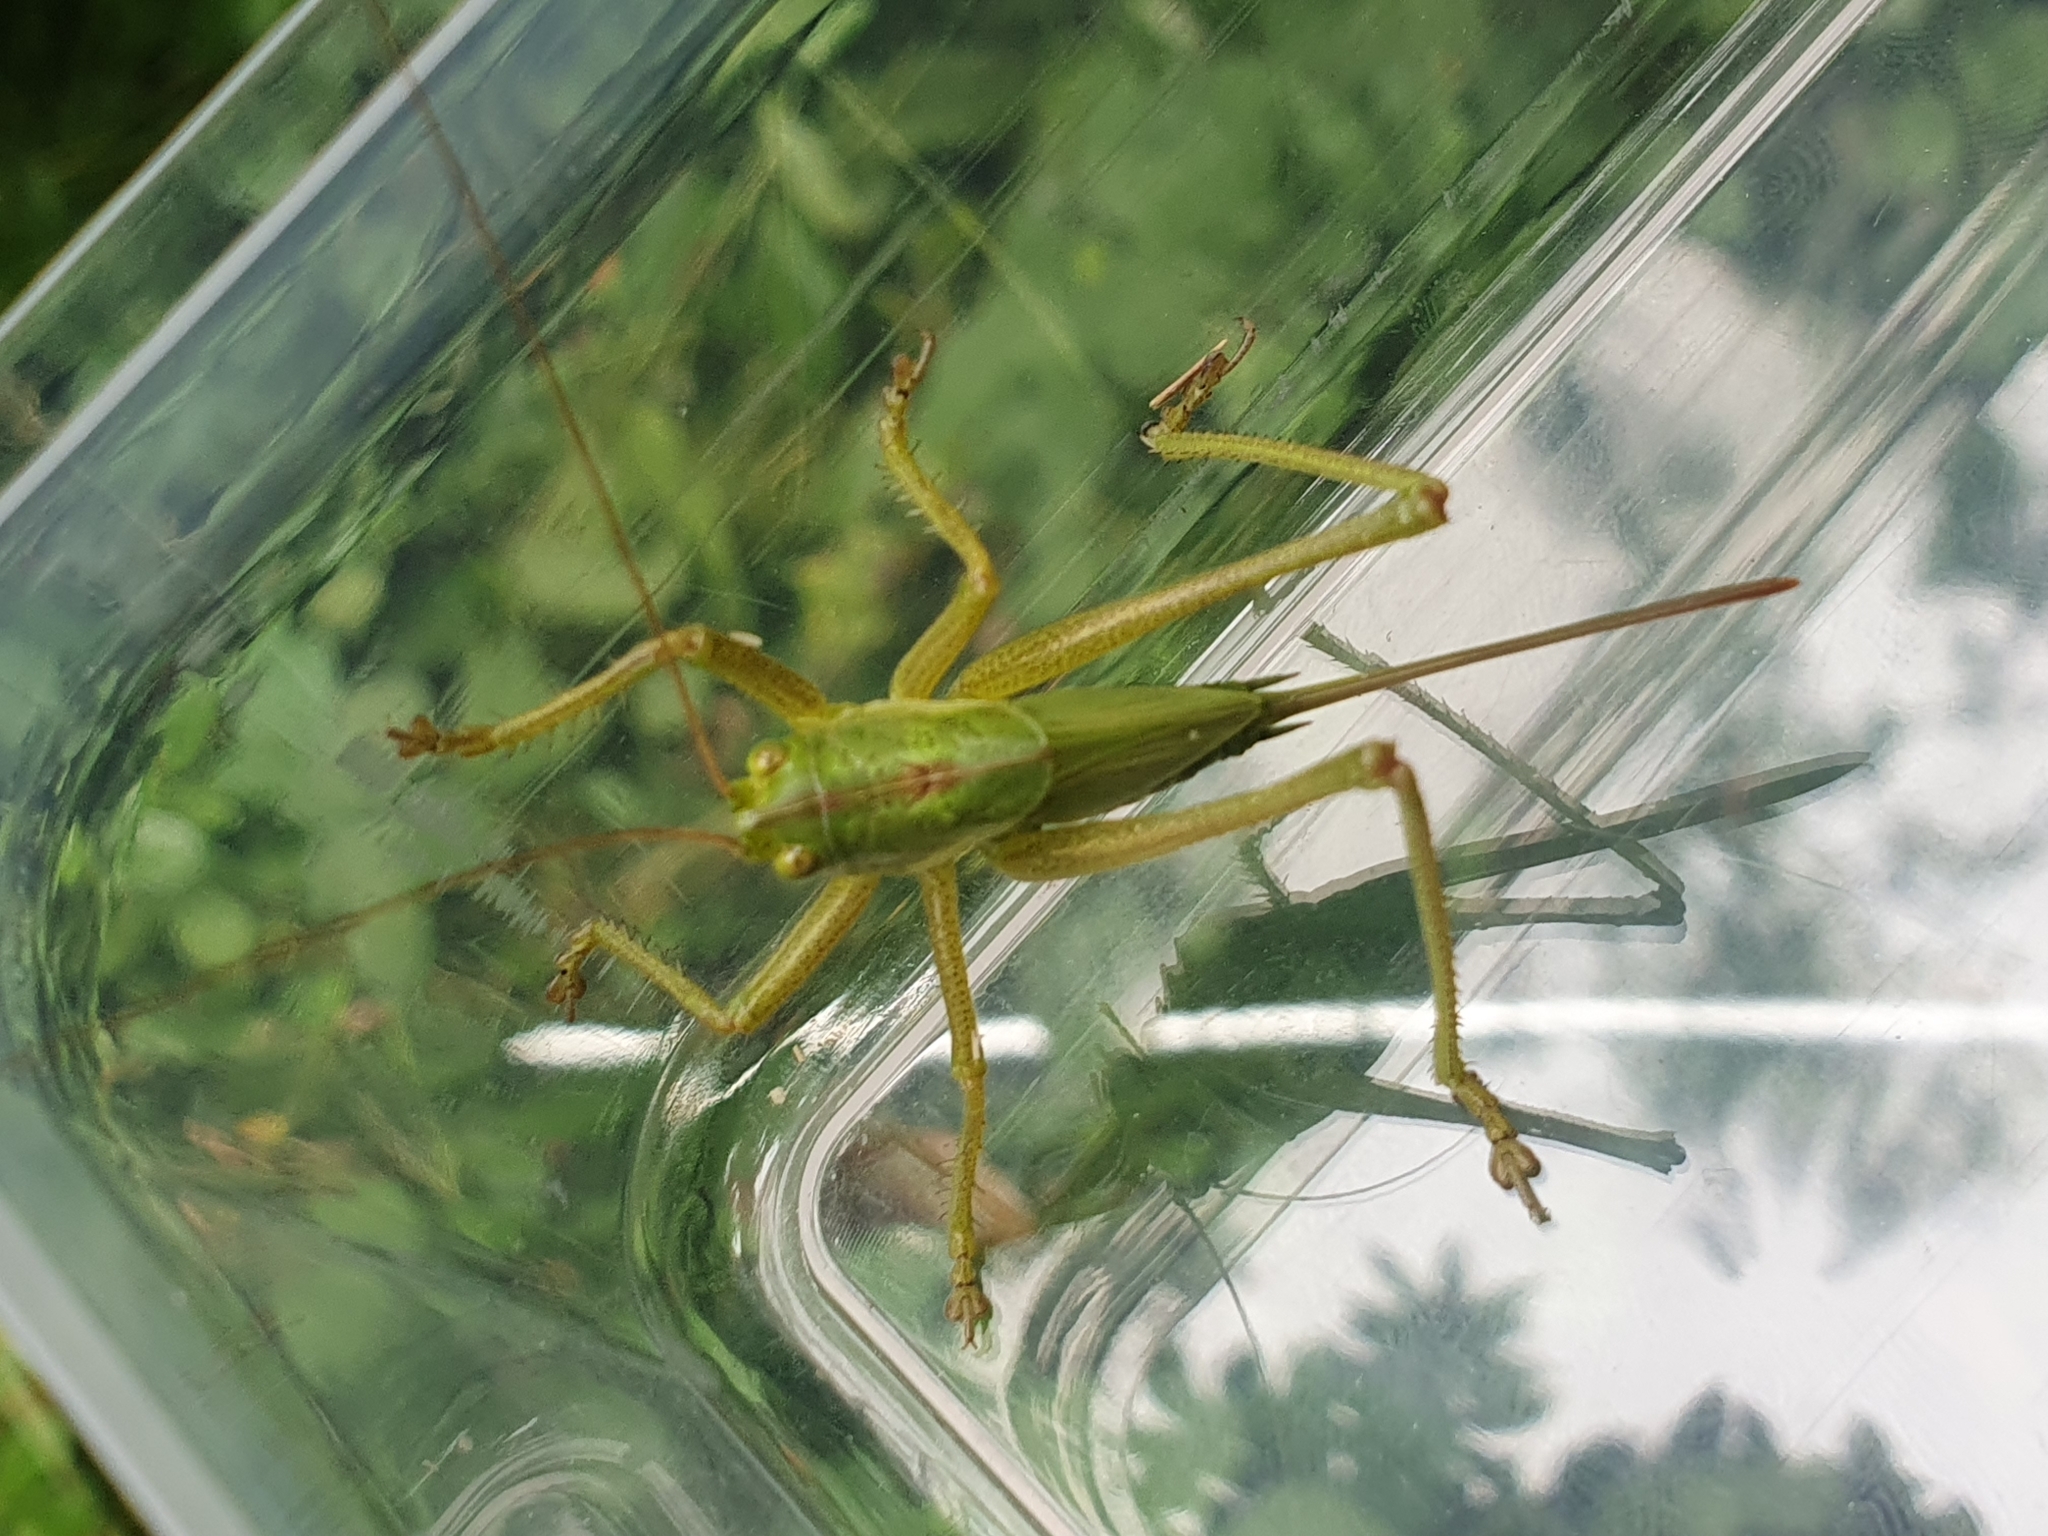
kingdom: Animalia
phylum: Arthropoda
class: Insecta
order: Orthoptera
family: Tettigoniidae
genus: Tettigonia
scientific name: Tettigonia viridissima
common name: Great green bush-cricket
